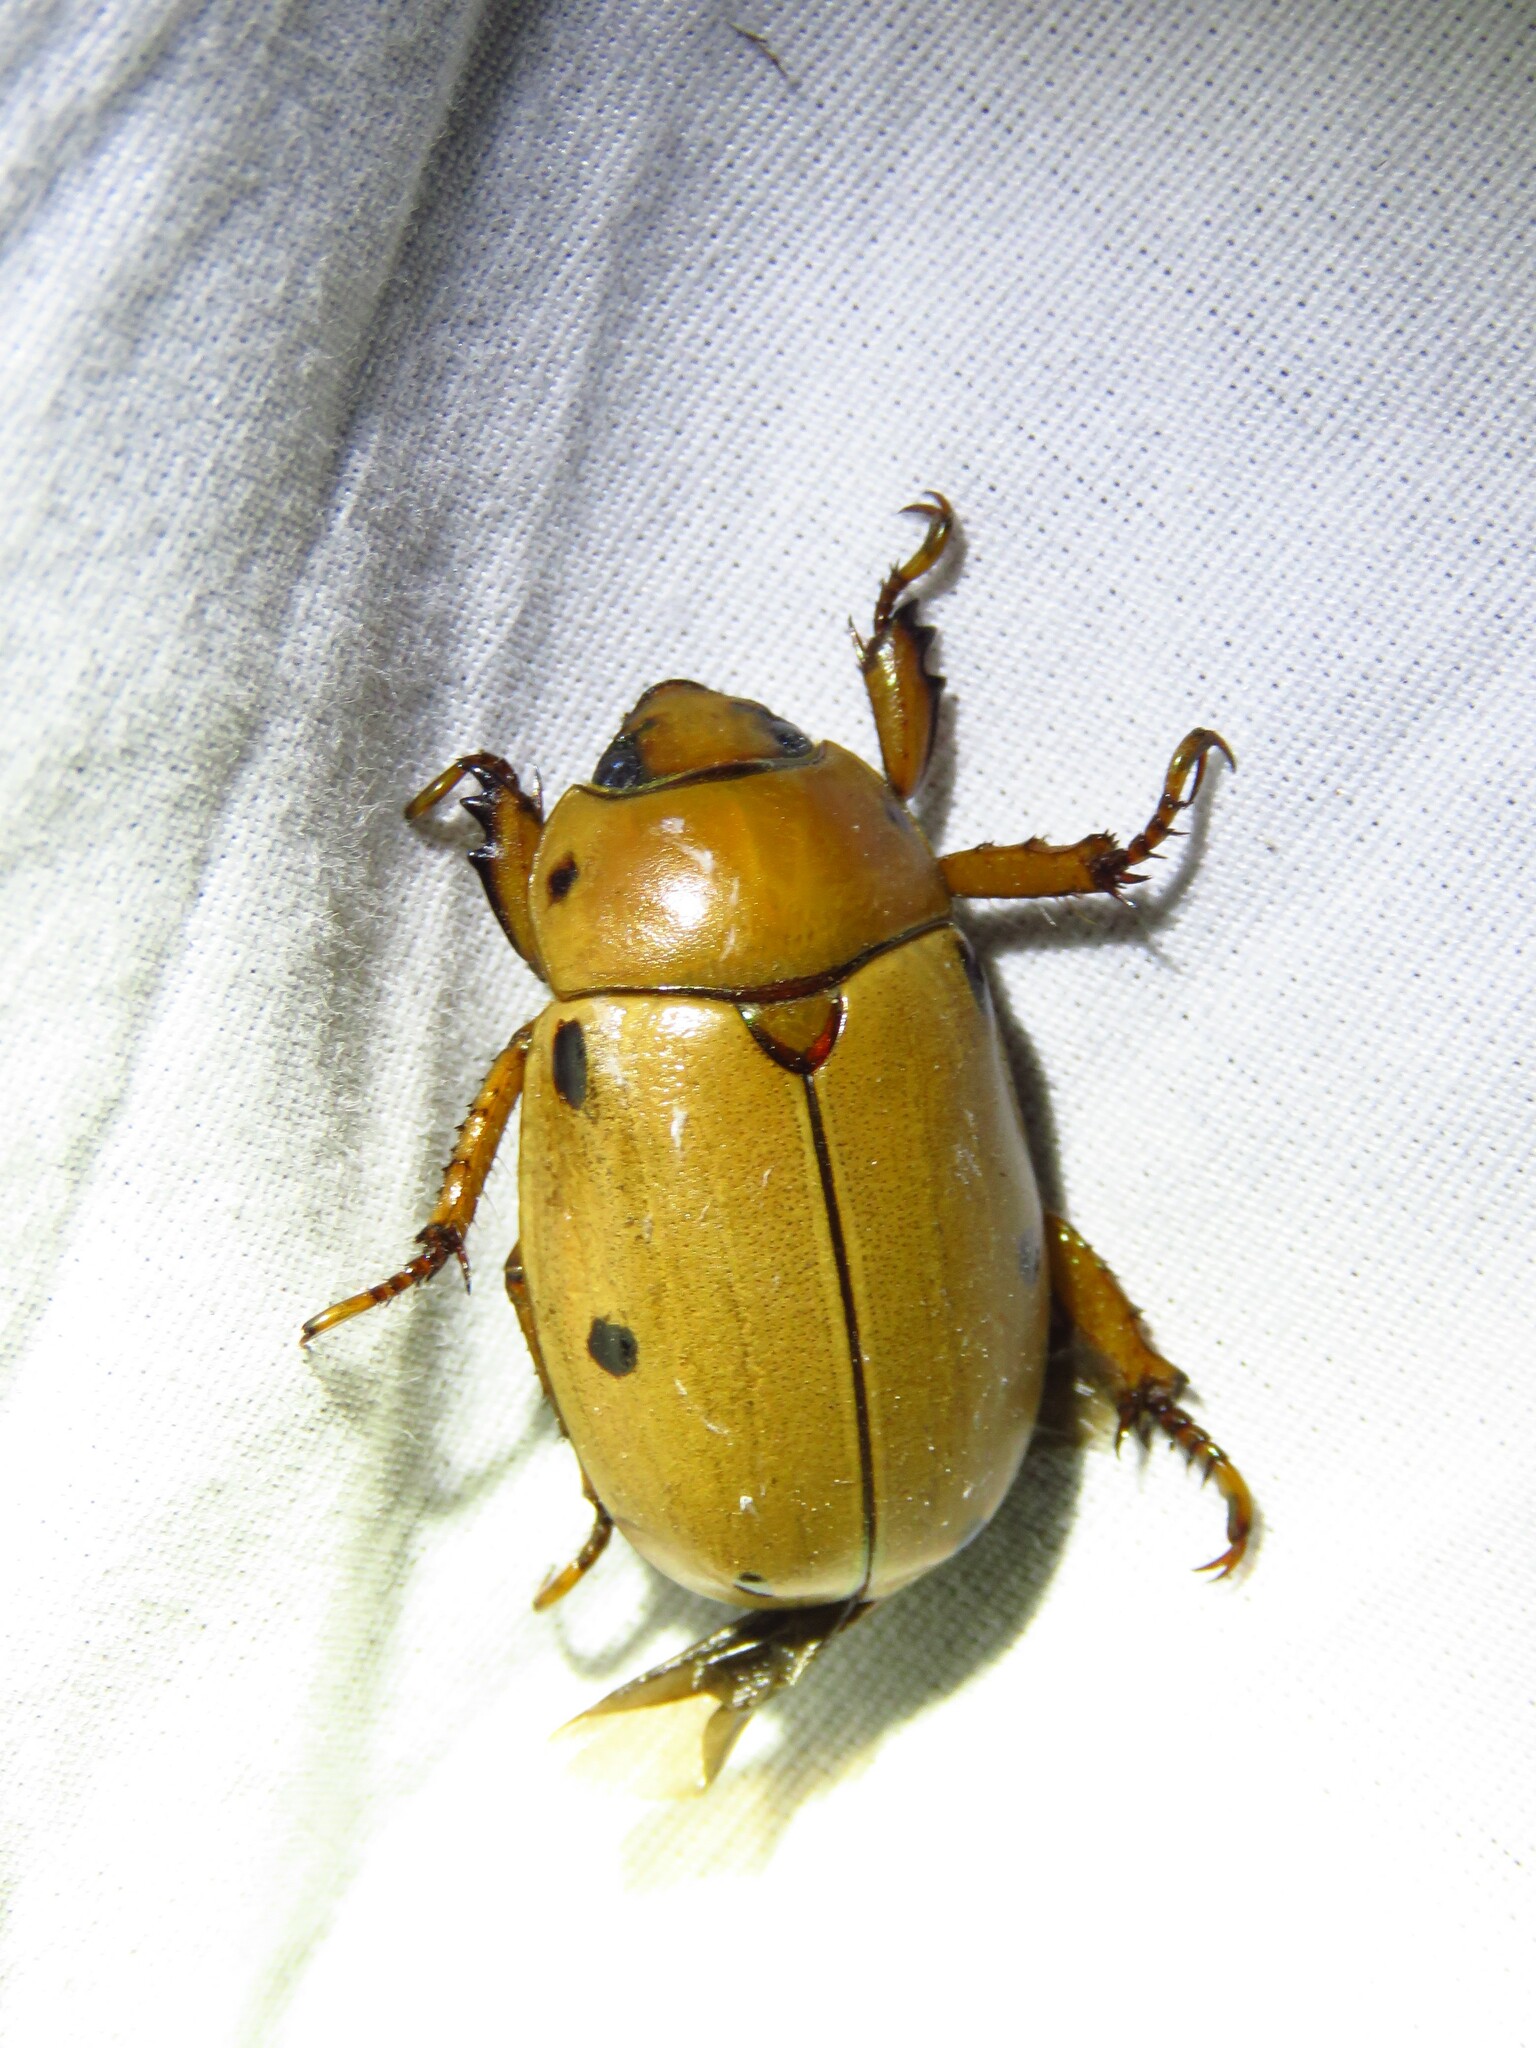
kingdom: Animalia
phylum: Arthropoda
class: Insecta
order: Coleoptera
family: Scarabaeidae
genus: Pelidnota
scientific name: Pelidnota punctata
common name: Grapevine beetle
